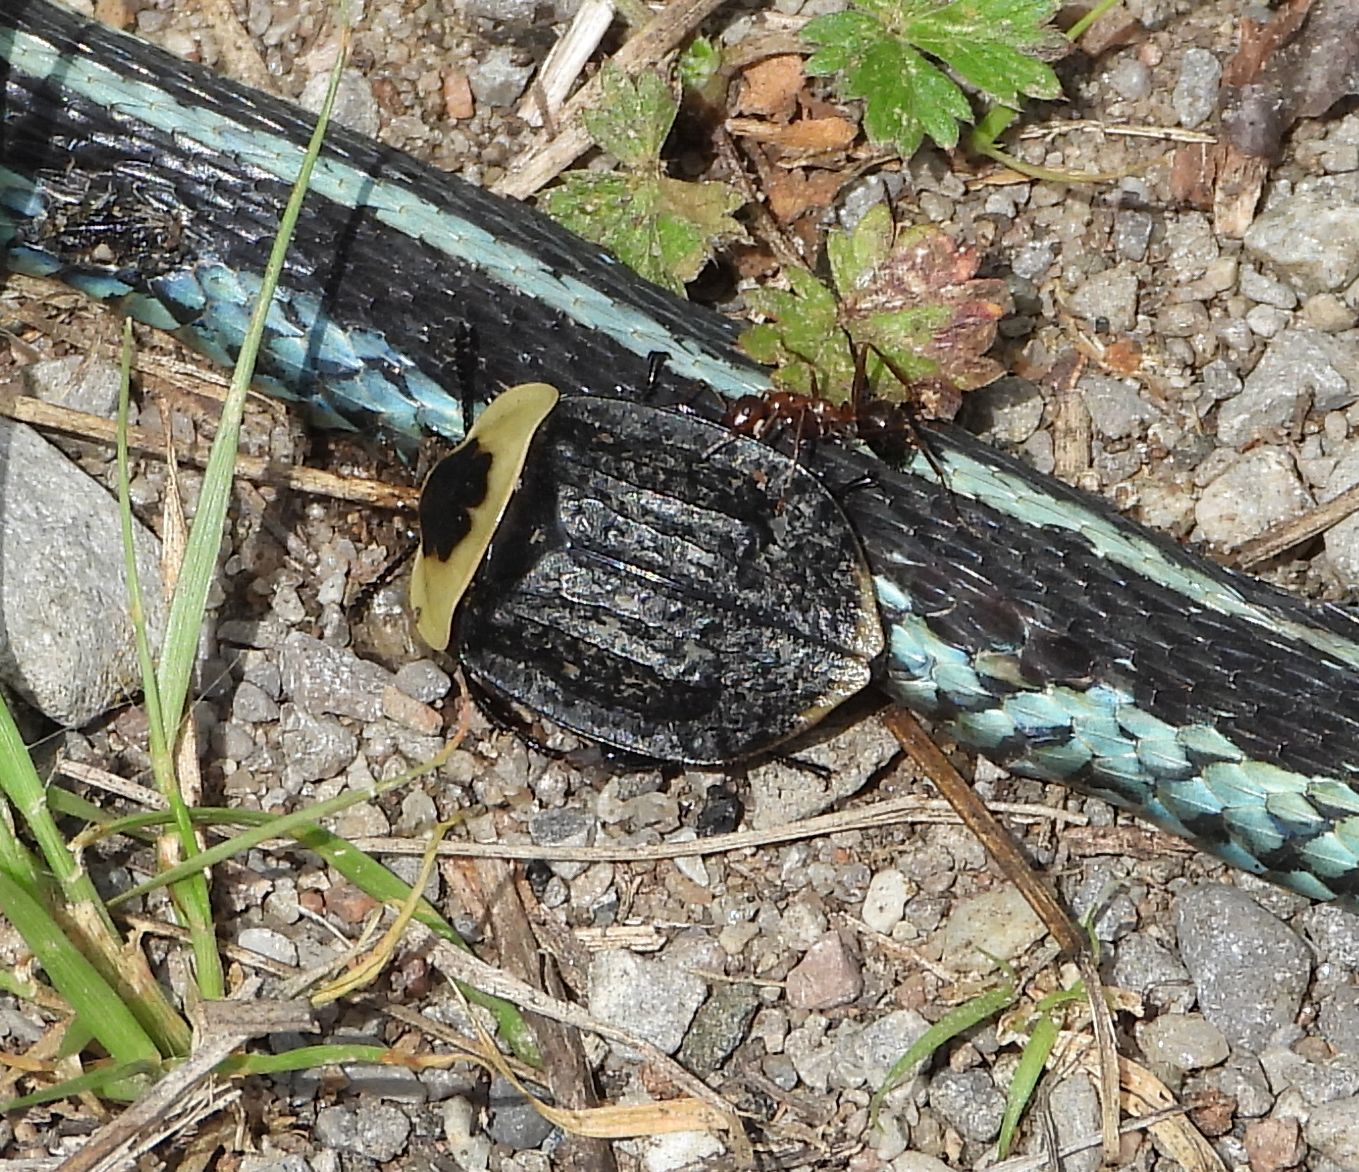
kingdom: Animalia
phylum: Arthropoda
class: Insecta
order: Coleoptera
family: Staphylinidae
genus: Necrophila
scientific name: Necrophila americana
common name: American carrion beetle
